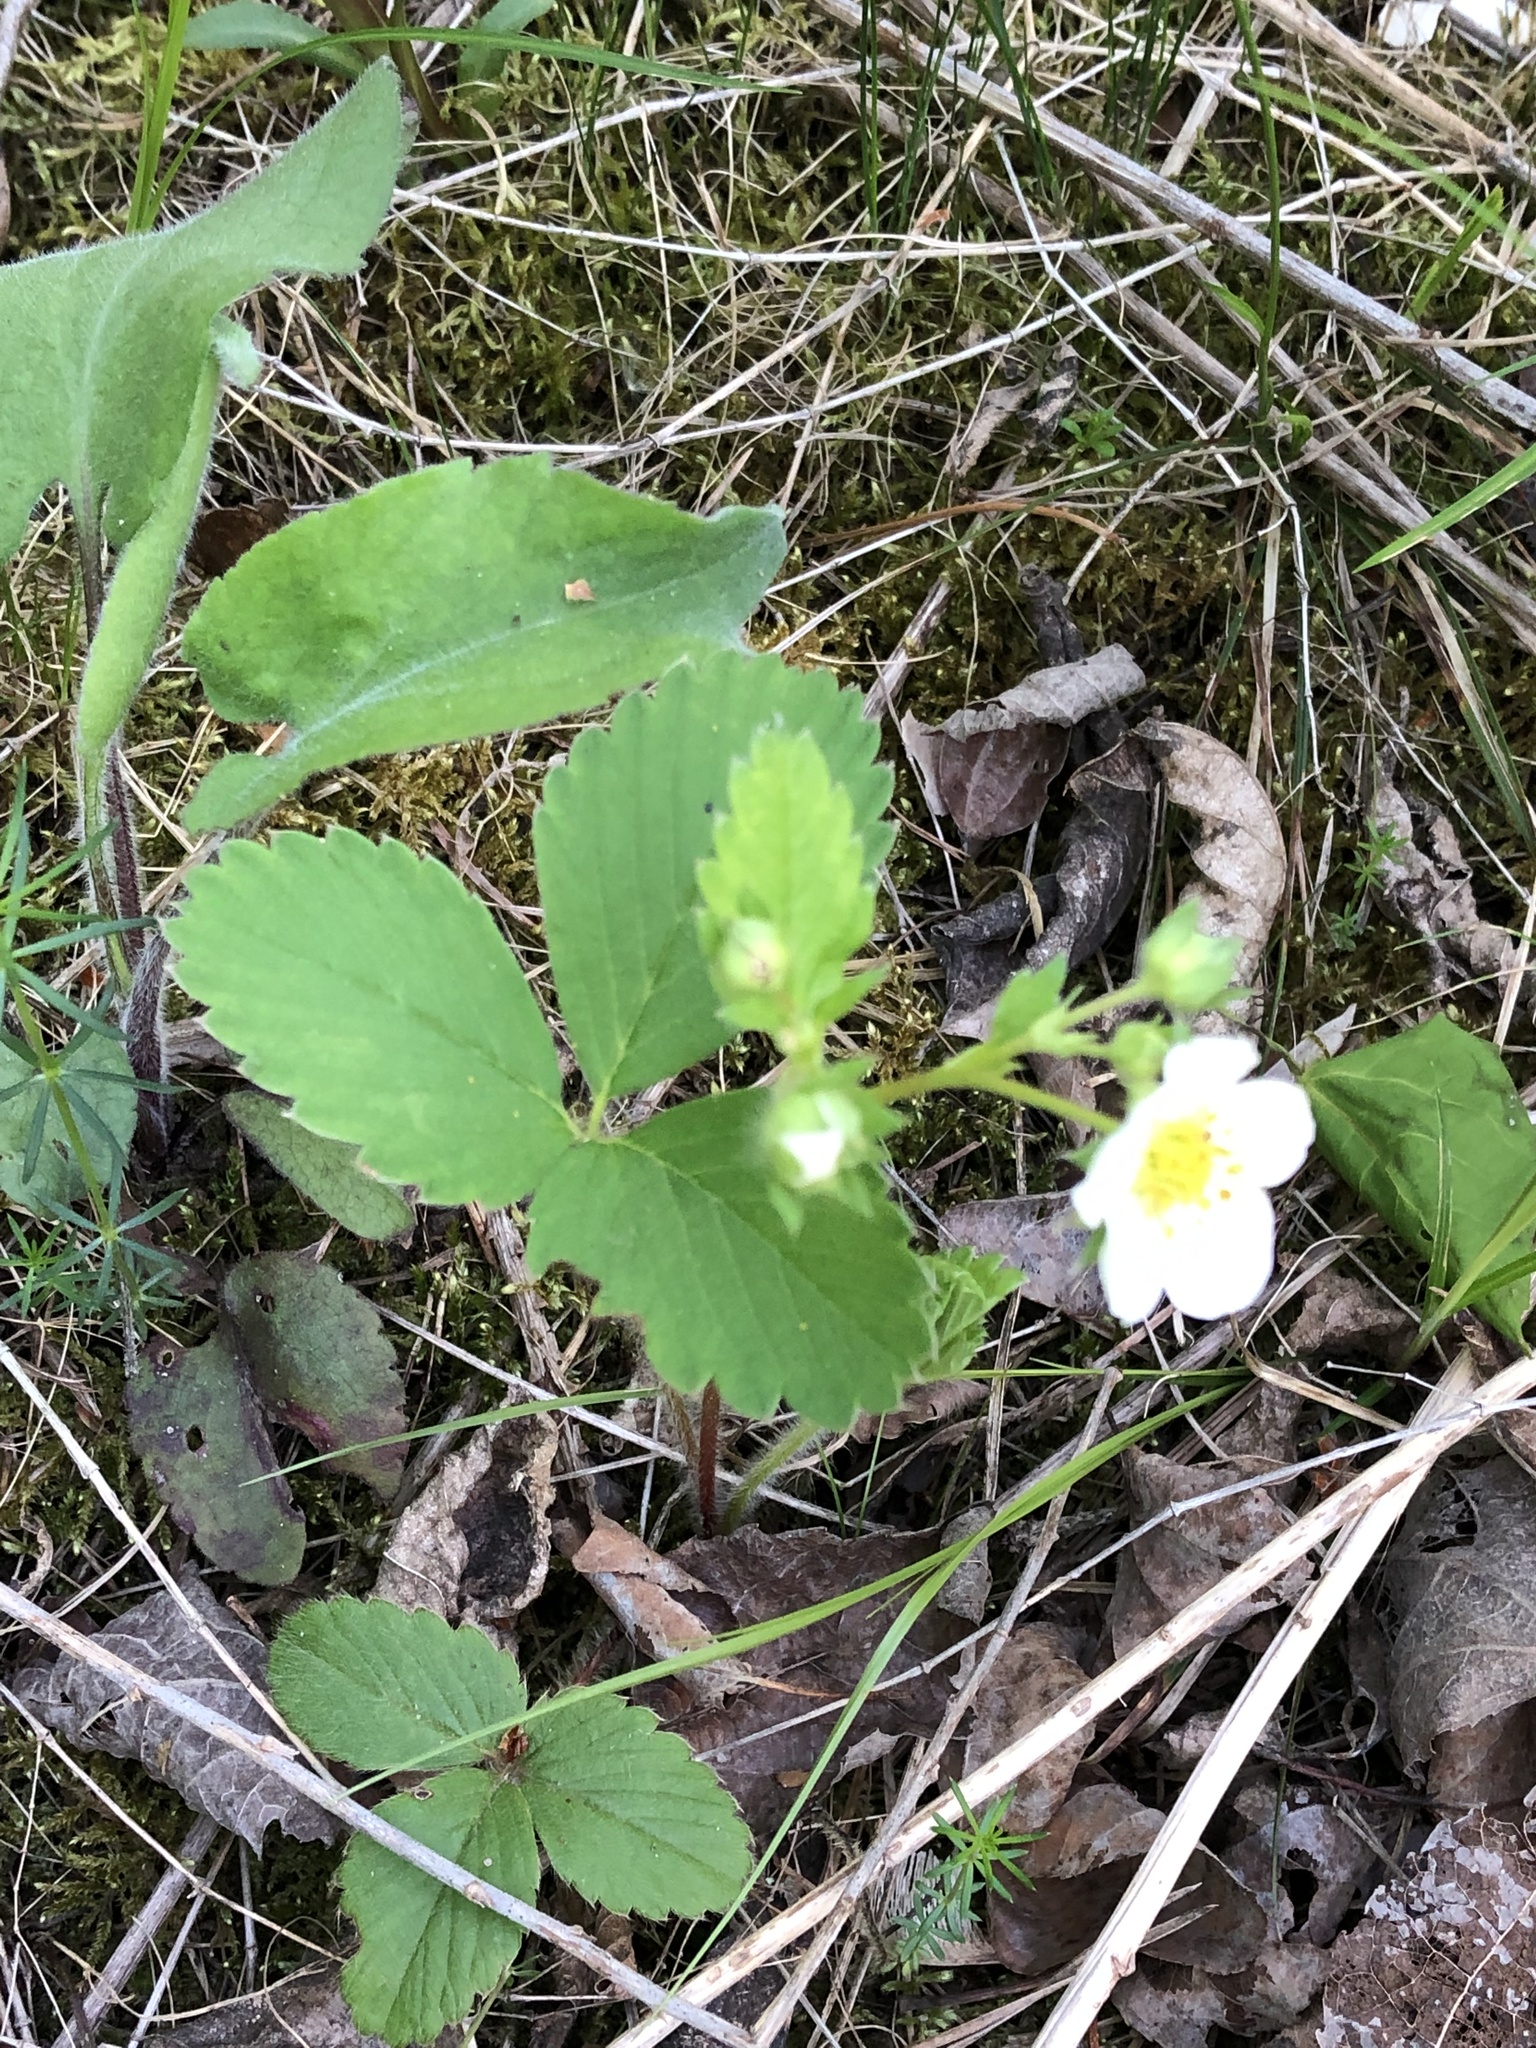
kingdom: Plantae
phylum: Tracheophyta
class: Magnoliopsida
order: Rosales
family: Rosaceae
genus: Fragaria
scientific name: Fragaria virginiana
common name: Thickleaved wild strawberry
